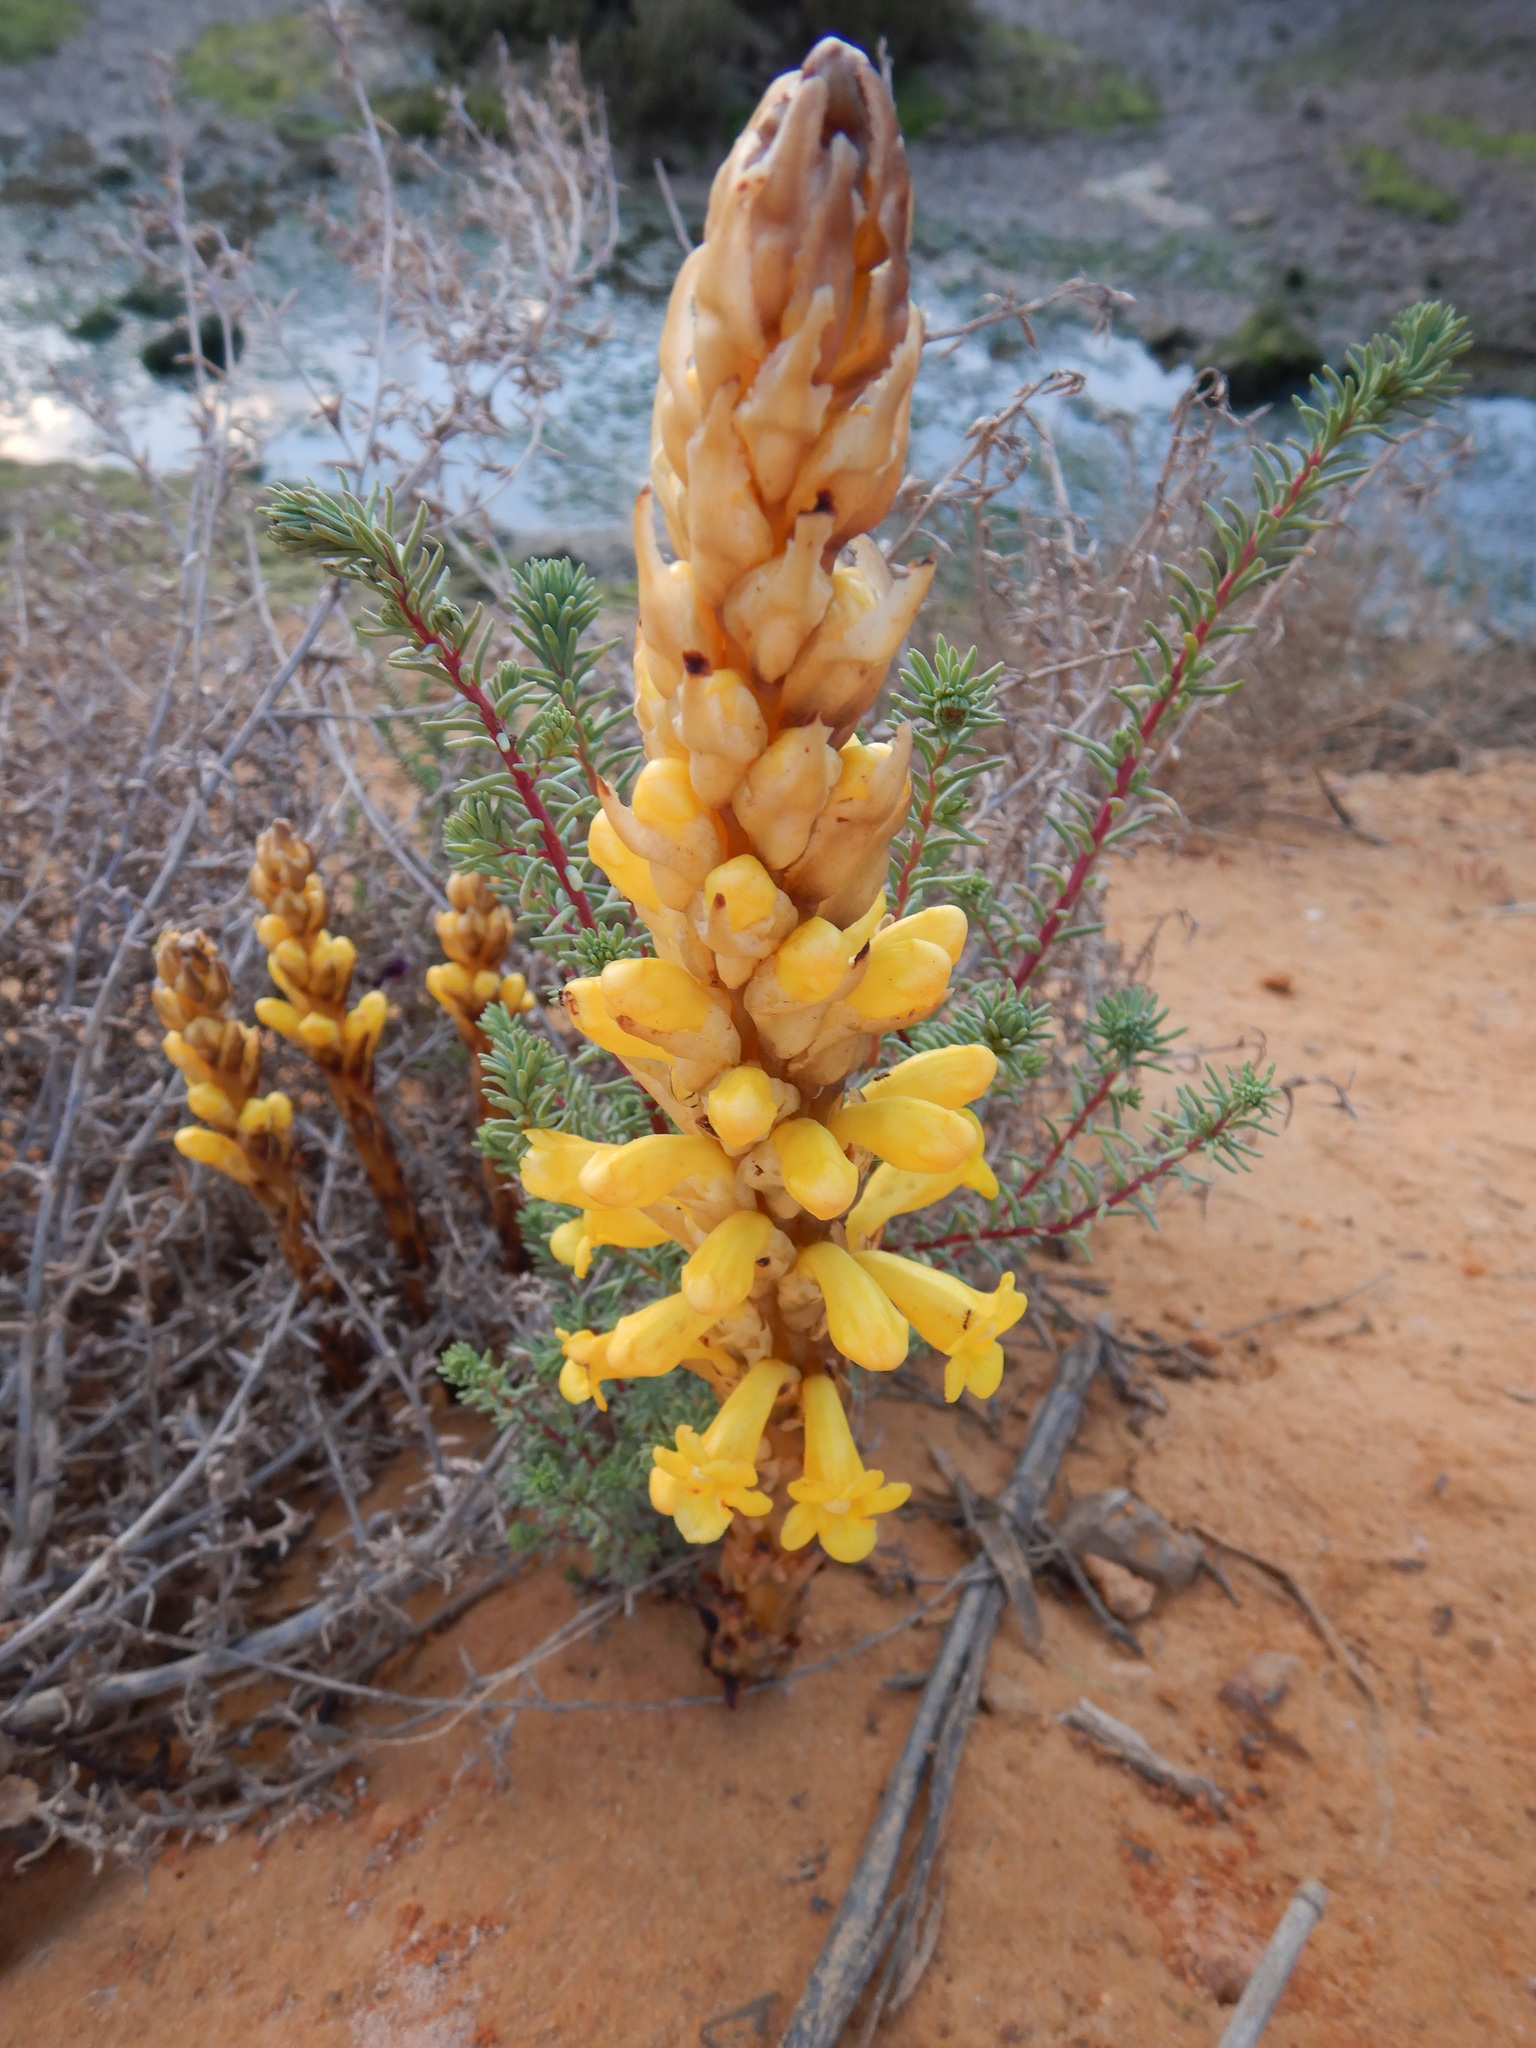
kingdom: Plantae
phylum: Tracheophyta
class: Magnoliopsida
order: Lamiales
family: Orobanchaceae
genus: Cistanche
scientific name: Cistanche phelypaea
